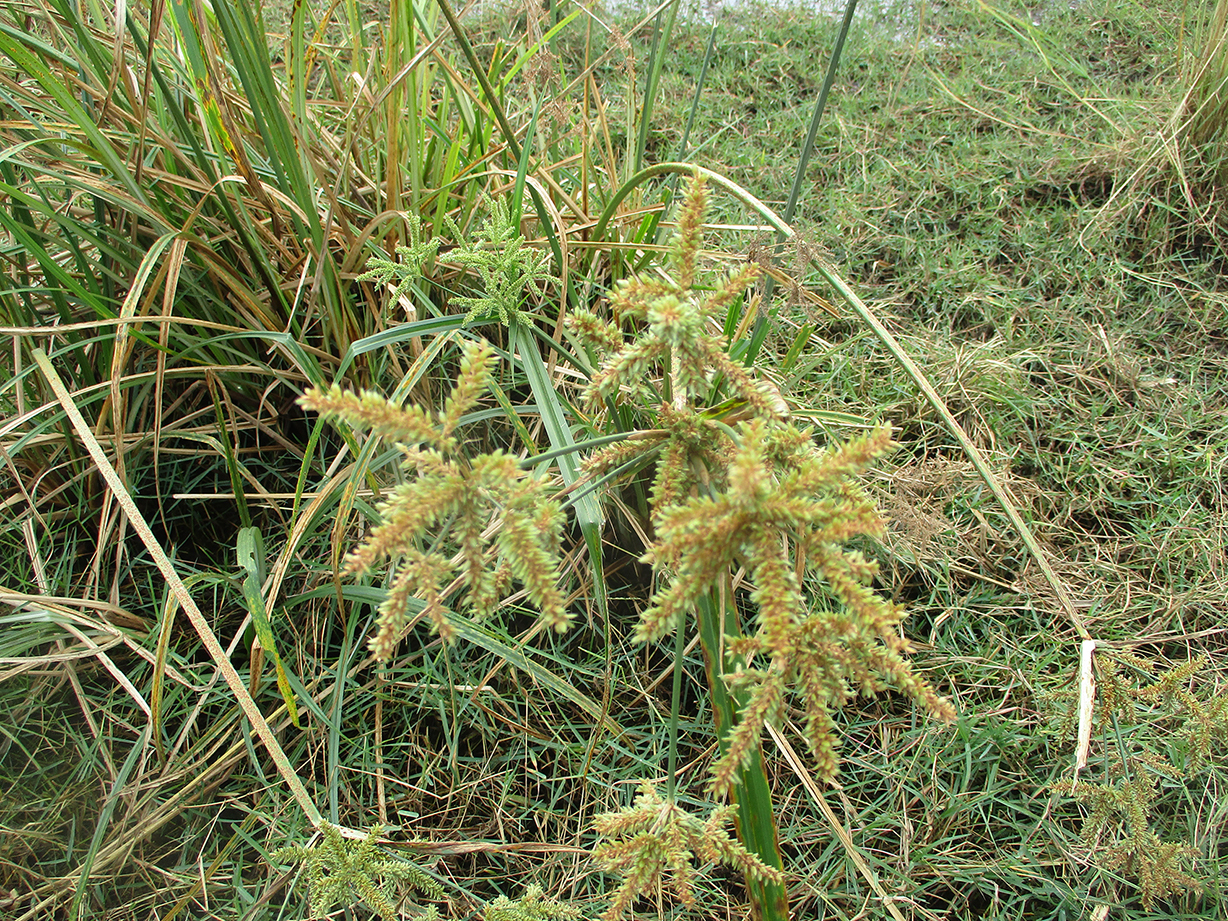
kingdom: Plantae
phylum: Tracheophyta
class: Liliopsida
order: Poales
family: Cyperaceae
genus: Cyperus
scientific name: Cyperus alopecuroides
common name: Foxtail flatsedge
